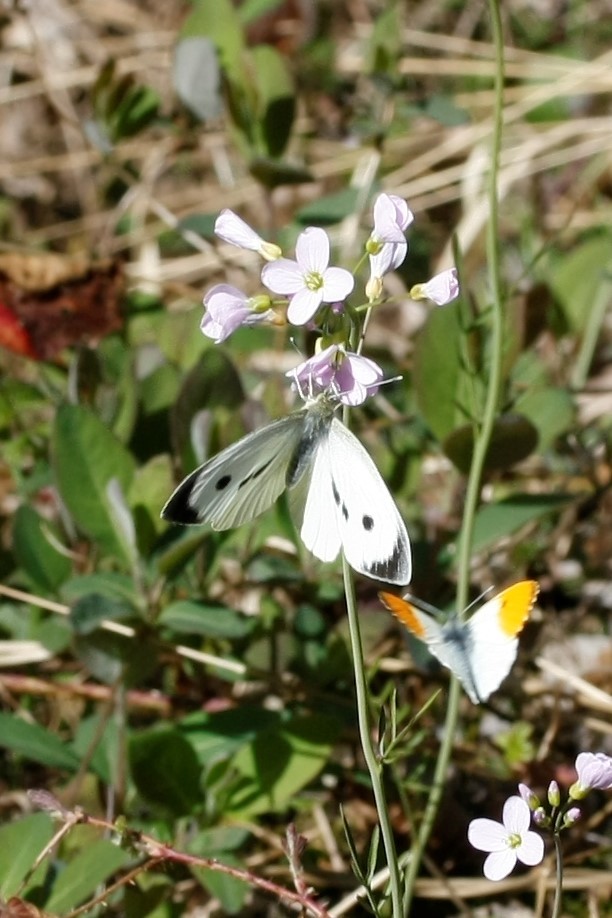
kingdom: Animalia
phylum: Arthropoda
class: Insecta
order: Lepidoptera
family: Pieridae
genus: Pieris
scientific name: Pieris brassicae
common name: Large white
